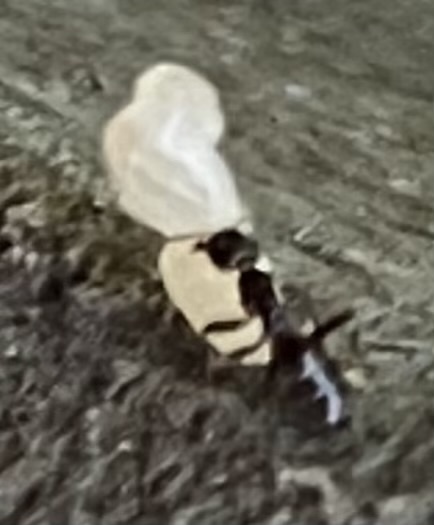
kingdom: Animalia
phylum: Arthropoda
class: Insecta
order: Hymenoptera
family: Formicidae
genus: Tapinoma
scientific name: Tapinoma sessile
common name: Odorous house ant
